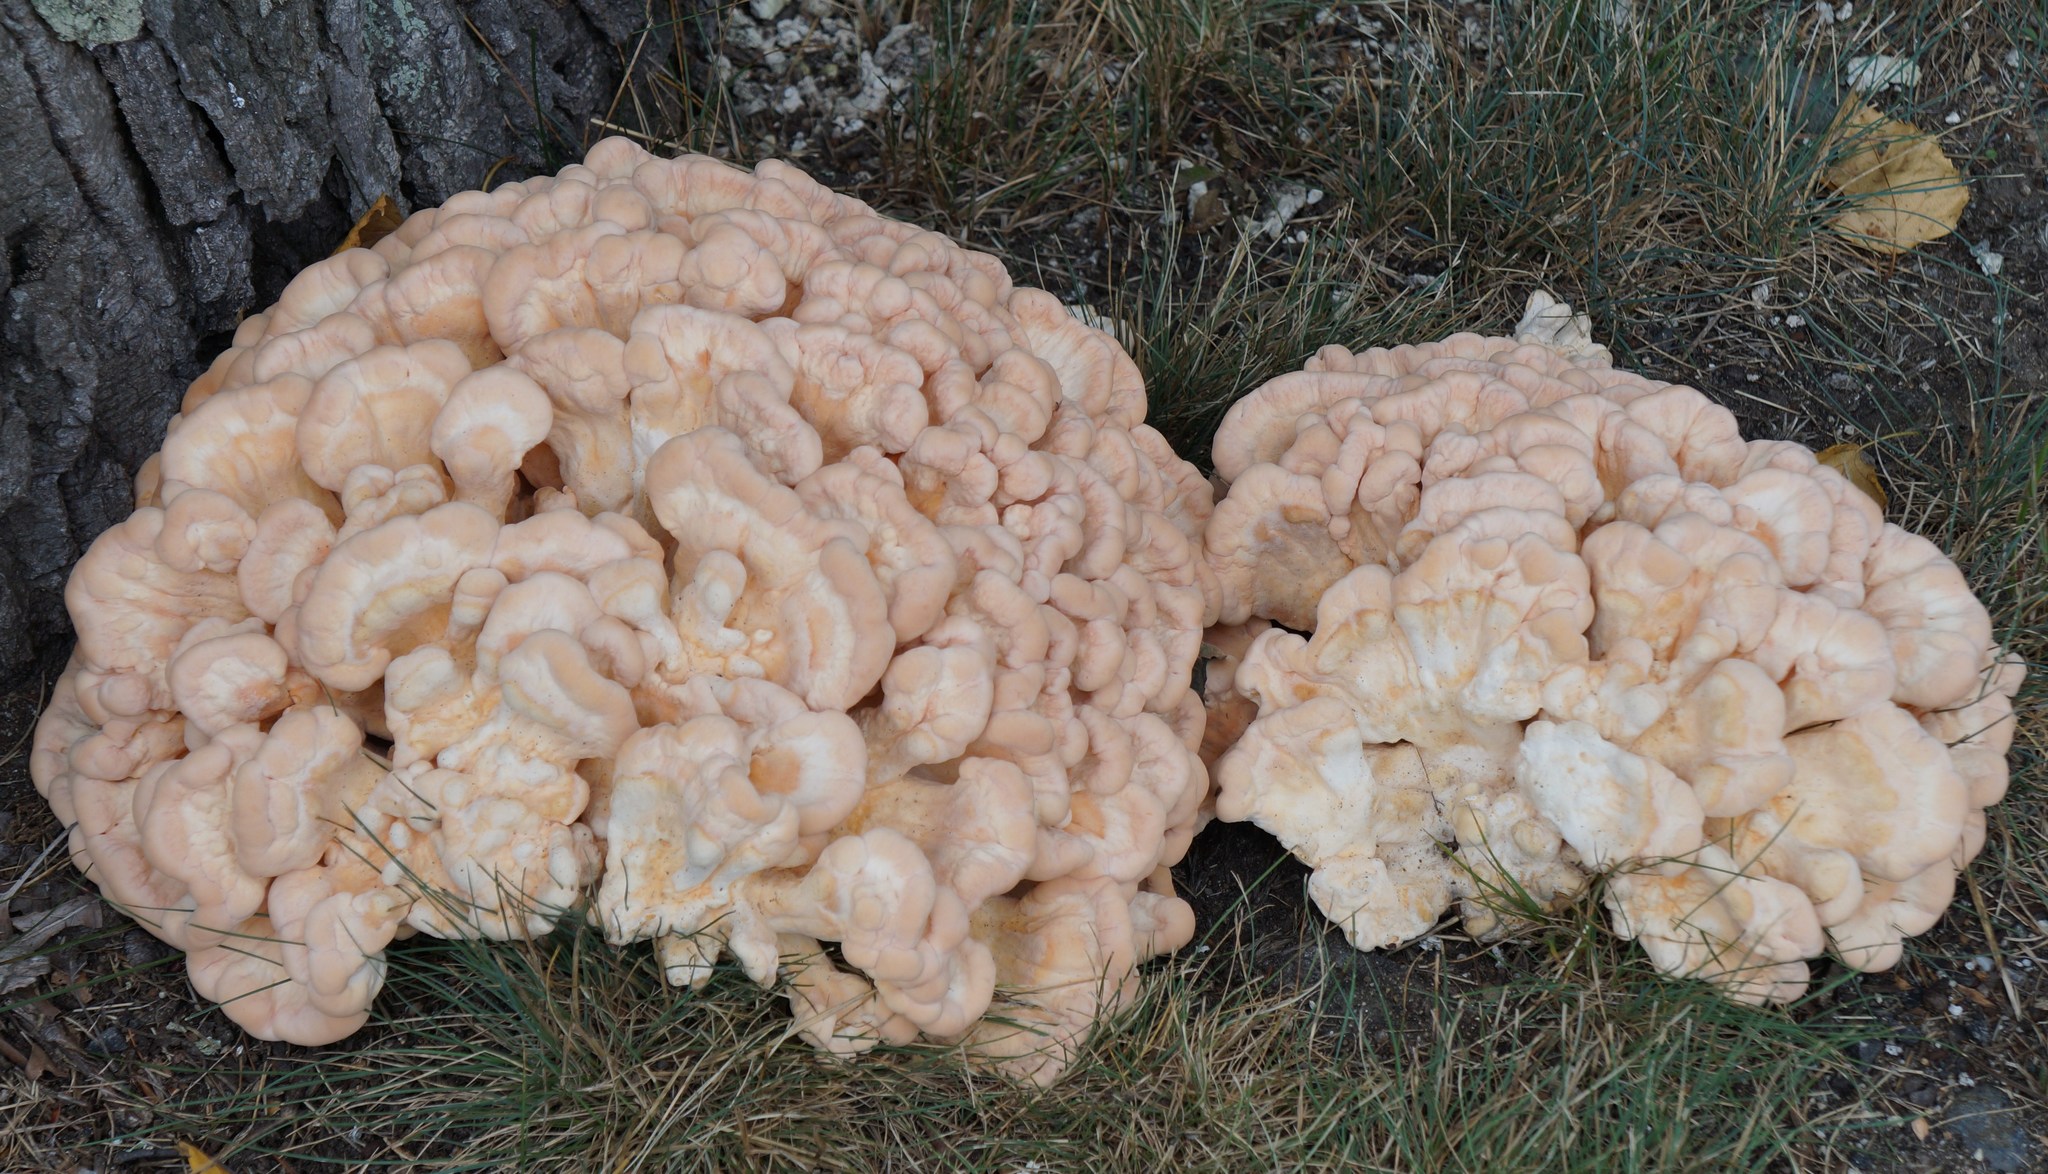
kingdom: Fungi
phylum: Basidiomycota
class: Agaricomycetes
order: Polyporales
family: Laetiporaceae
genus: Laetiporus
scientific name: Laetiporus sulphureus
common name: Chicken of the woods
